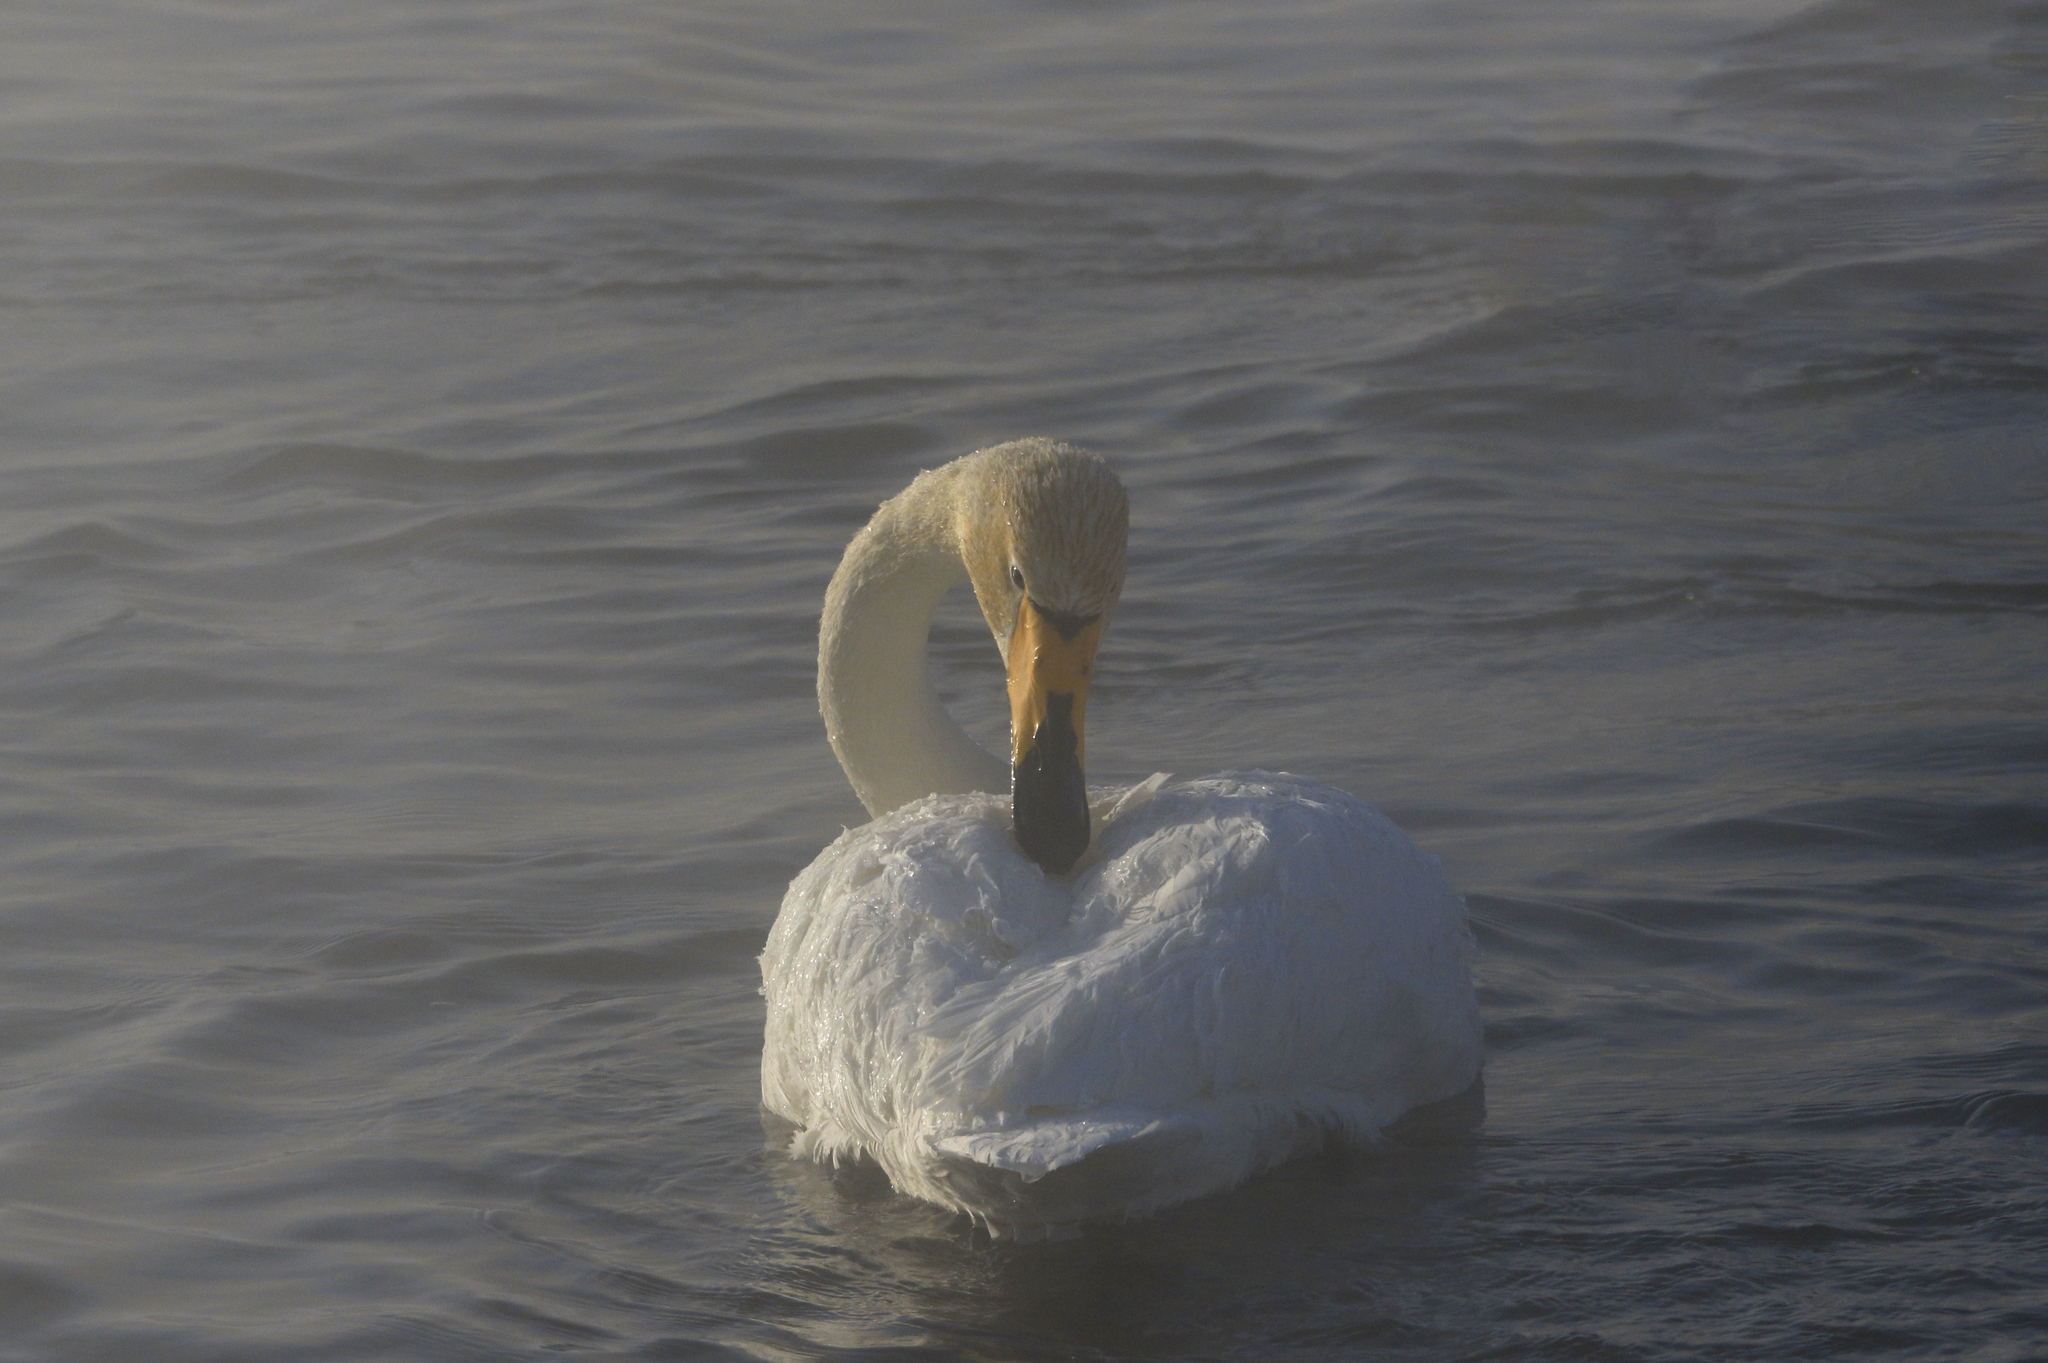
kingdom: Animalia
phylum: Chordata
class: Aves
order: Anseriformes
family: Anatidae
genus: Cygnus
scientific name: Cygnus cygnus
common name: Whooper swan
